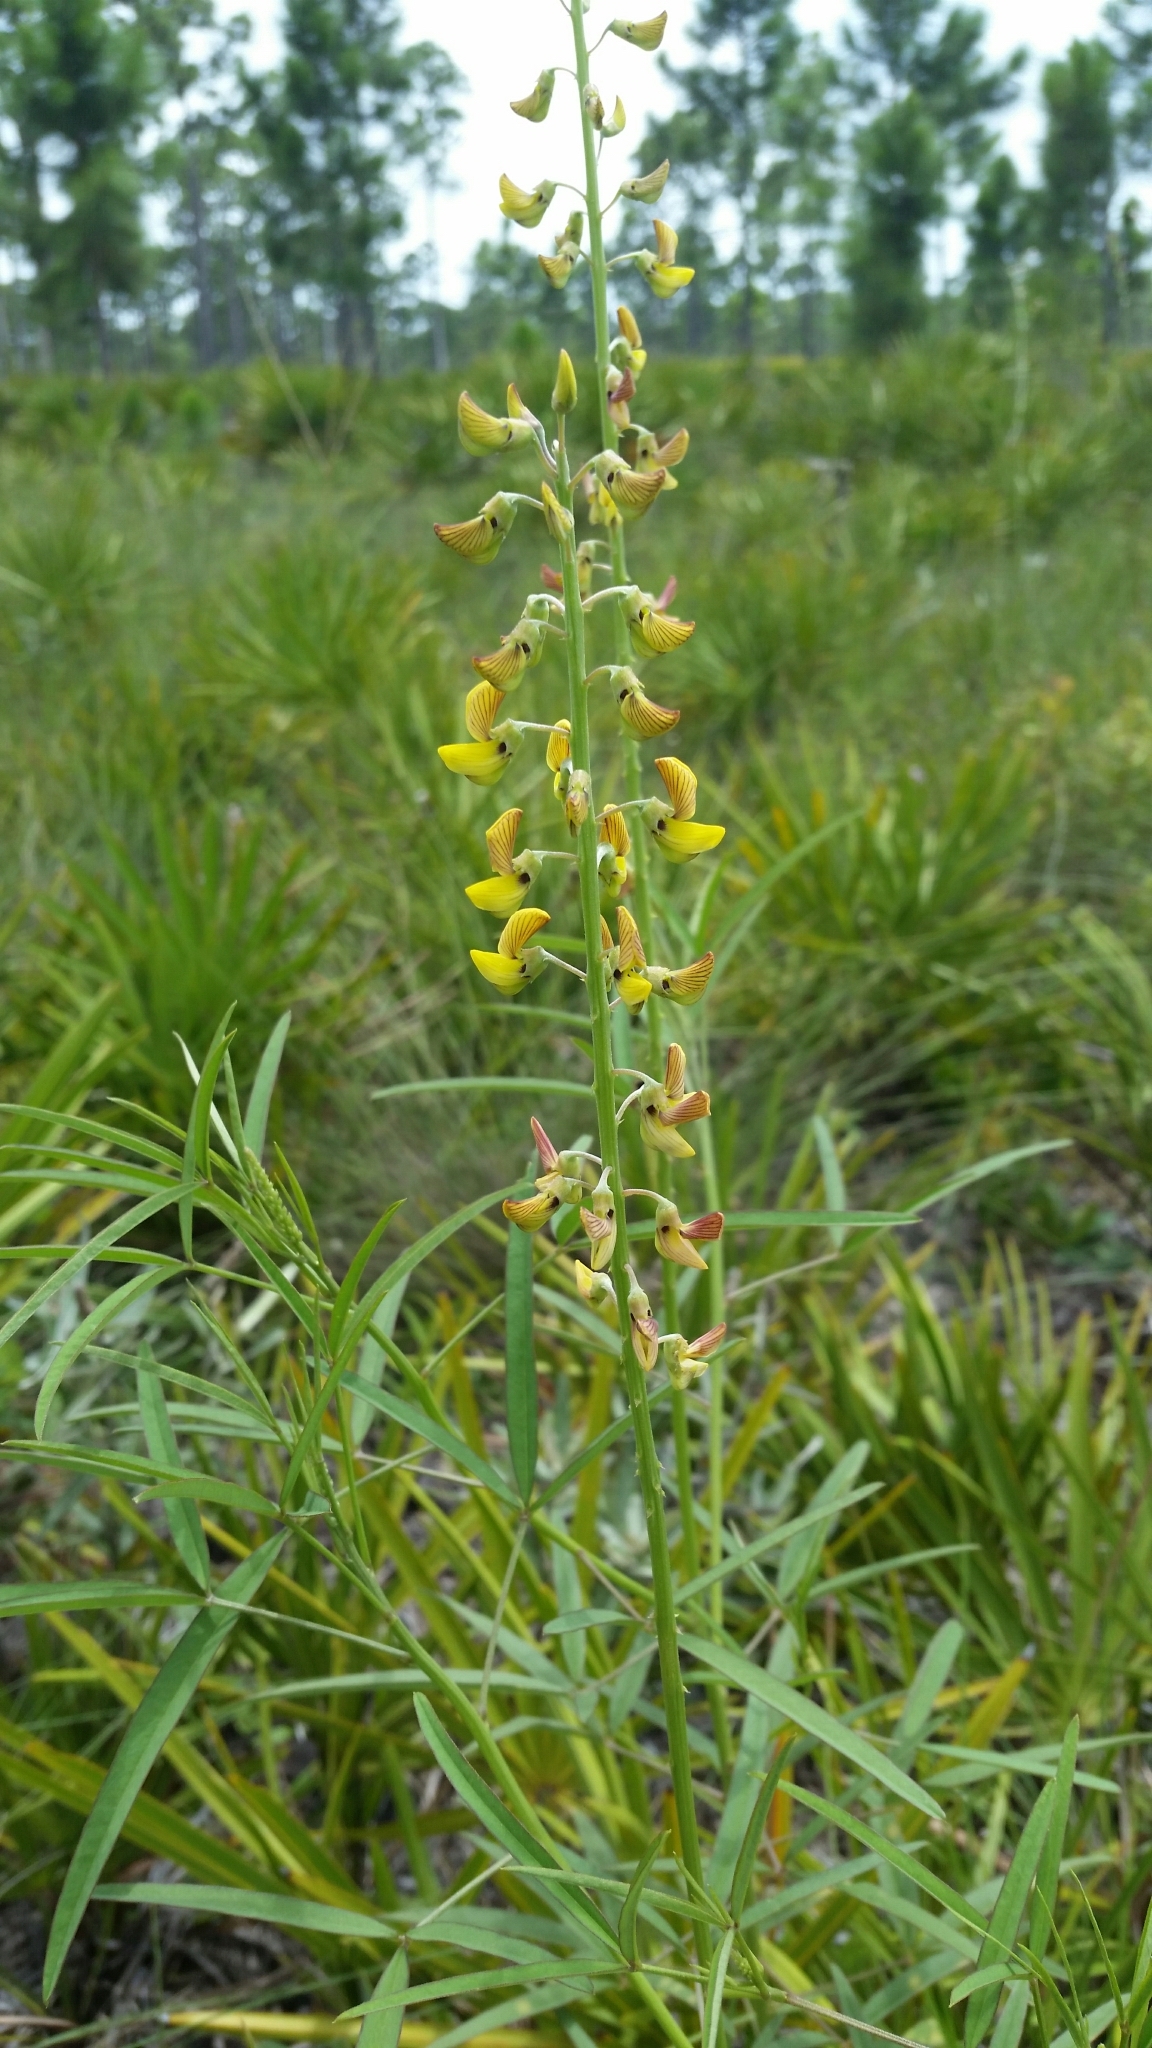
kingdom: Plantae
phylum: Tracheophyta
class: Magnoliopsida
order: Fabales
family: Fabaceae
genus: Crotalaria
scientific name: Crotalaria lanceolata
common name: Lanceleaf rattlebox
